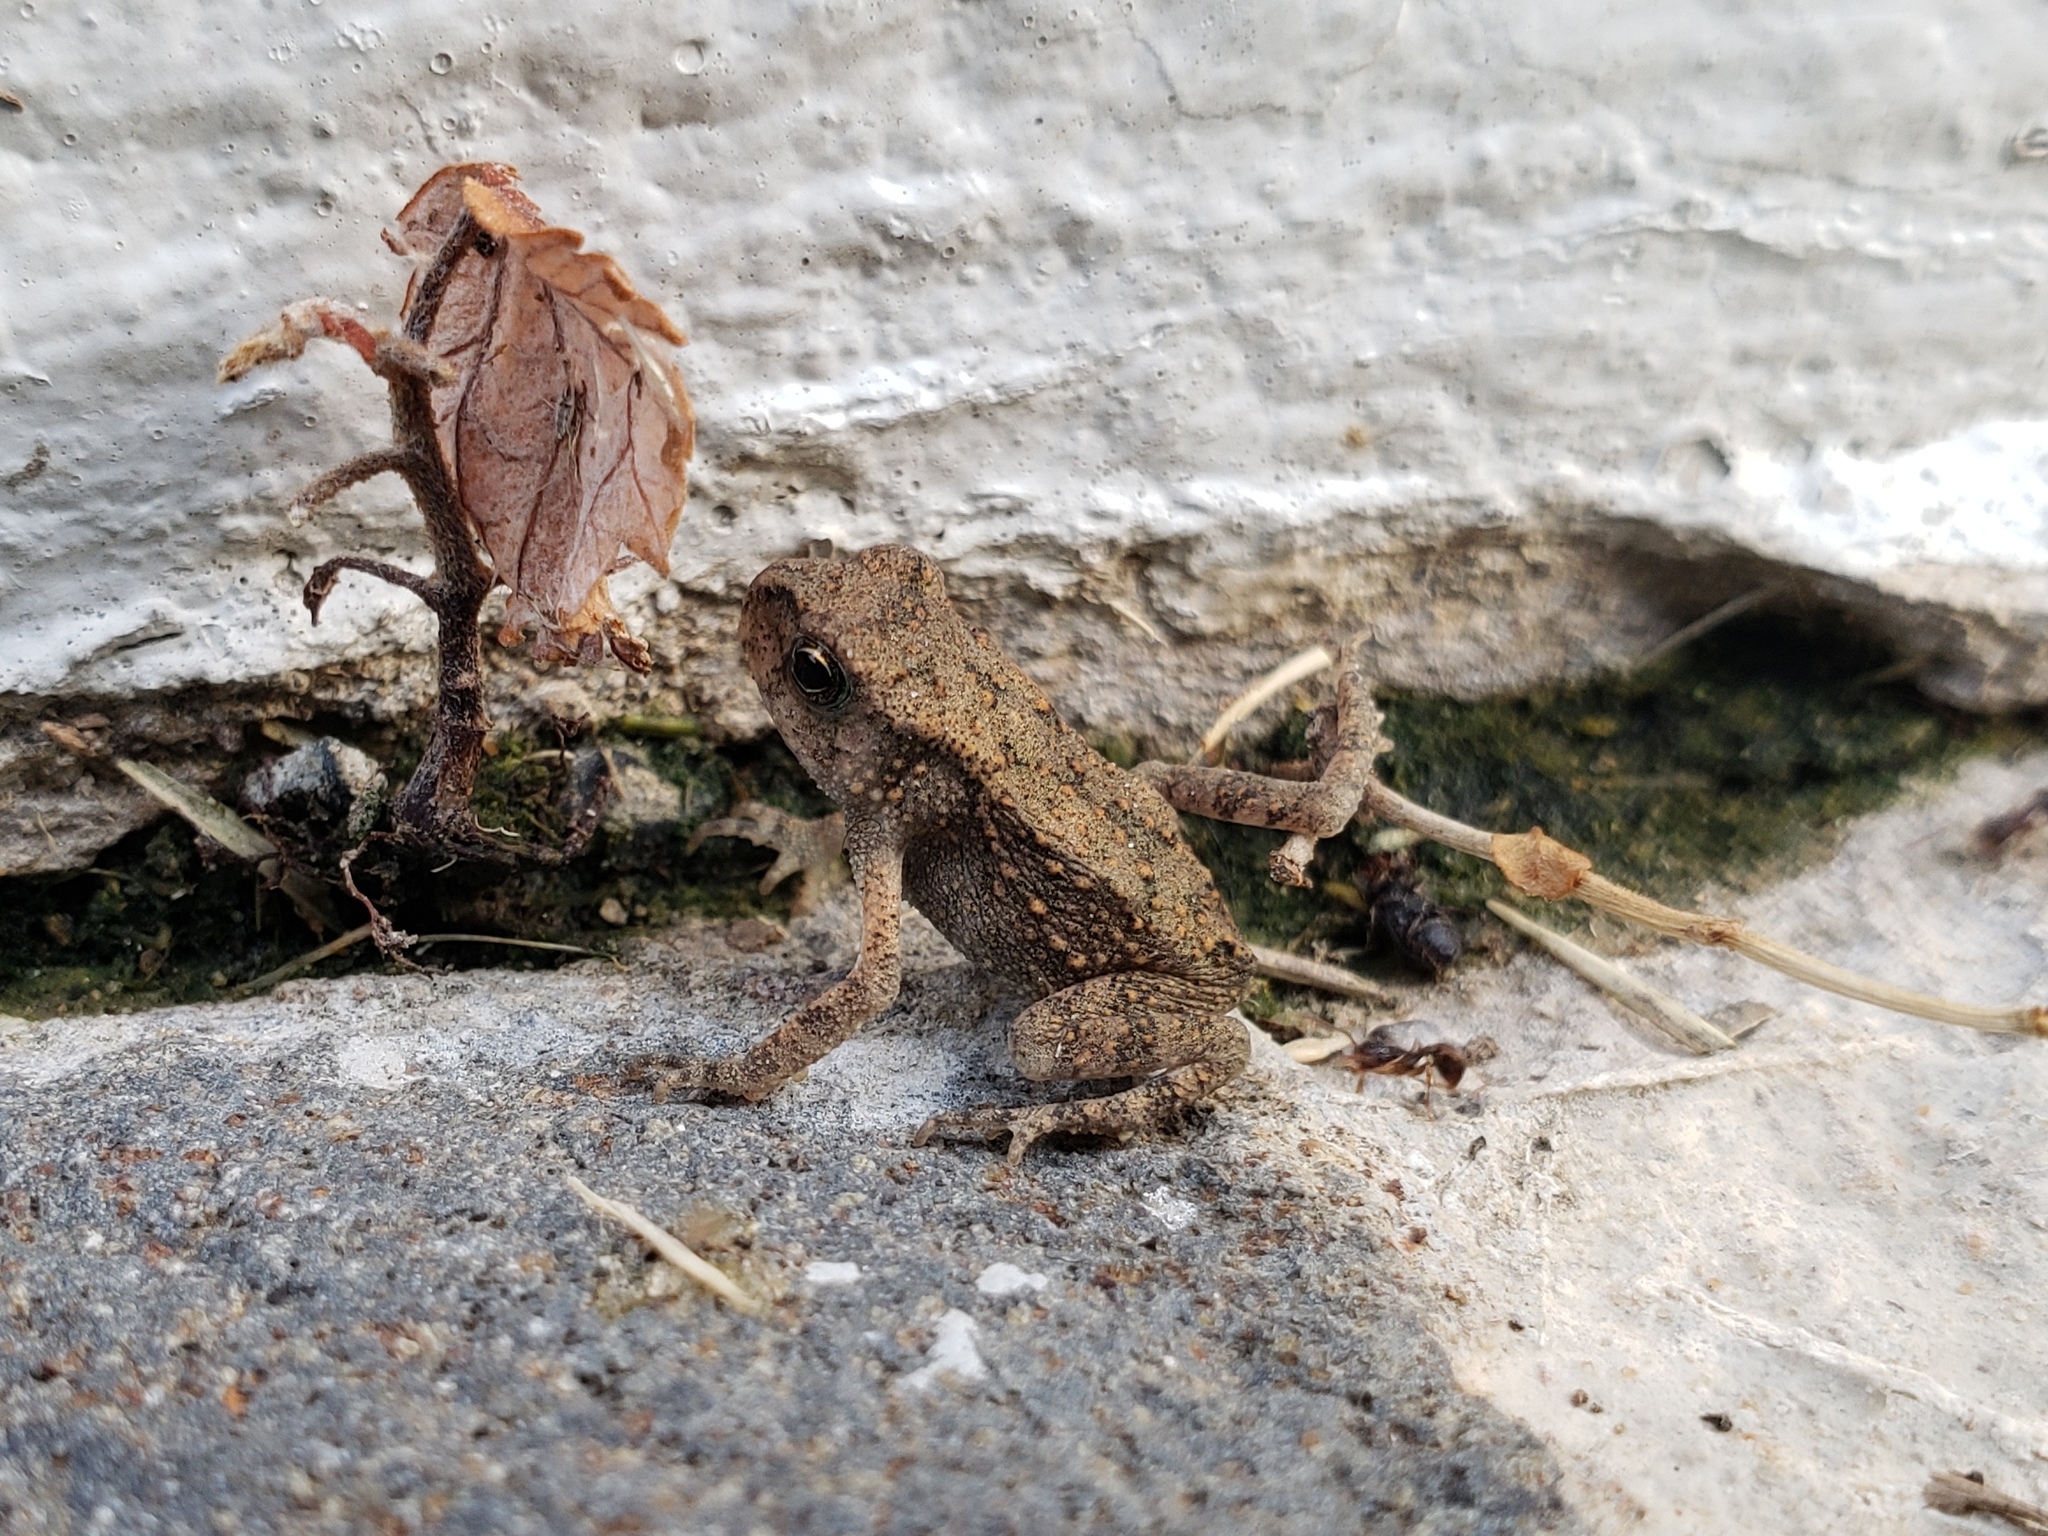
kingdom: Animalia
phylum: Chordata
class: Amphibia
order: Anura
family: Bufonidae
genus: Duttaphrynus
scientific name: Duttaphrynus melanostictus
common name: Common sunda toad
